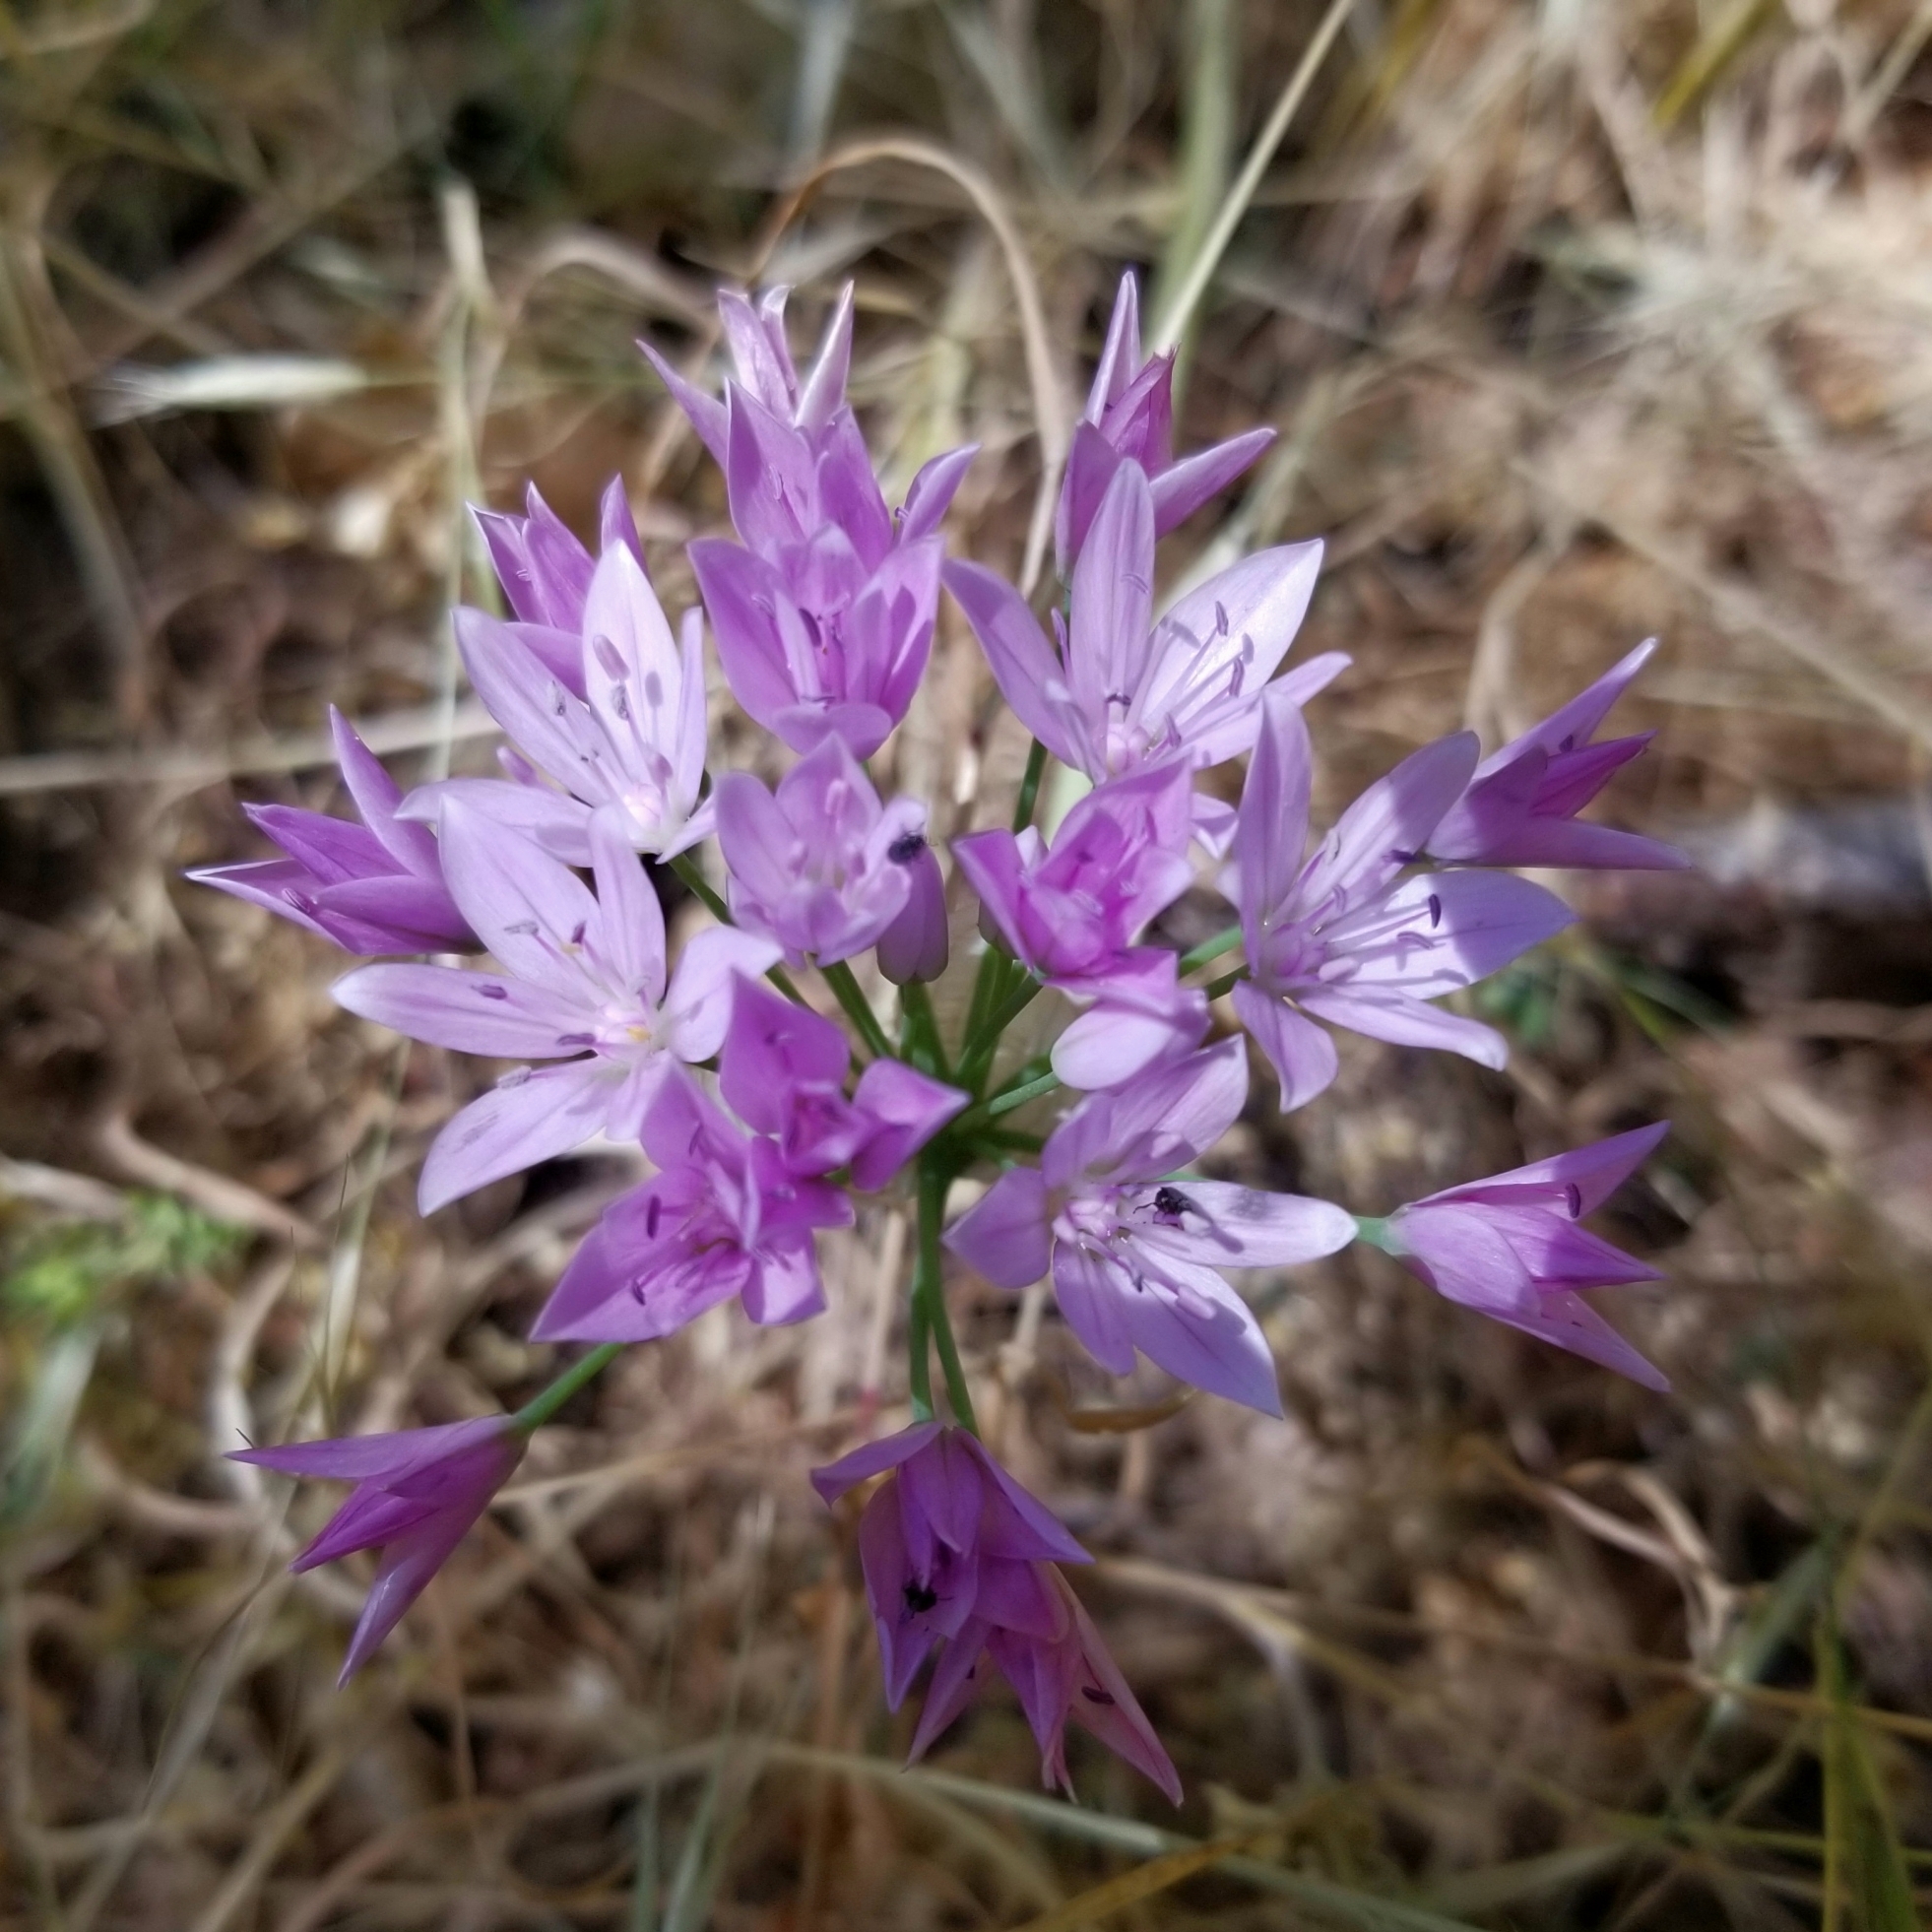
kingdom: Plantae
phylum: Tracheophyta
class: Liliopsida
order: Asparagales
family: Amaryllidaceae
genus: Allium
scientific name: Allium unifolium
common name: American garlic
